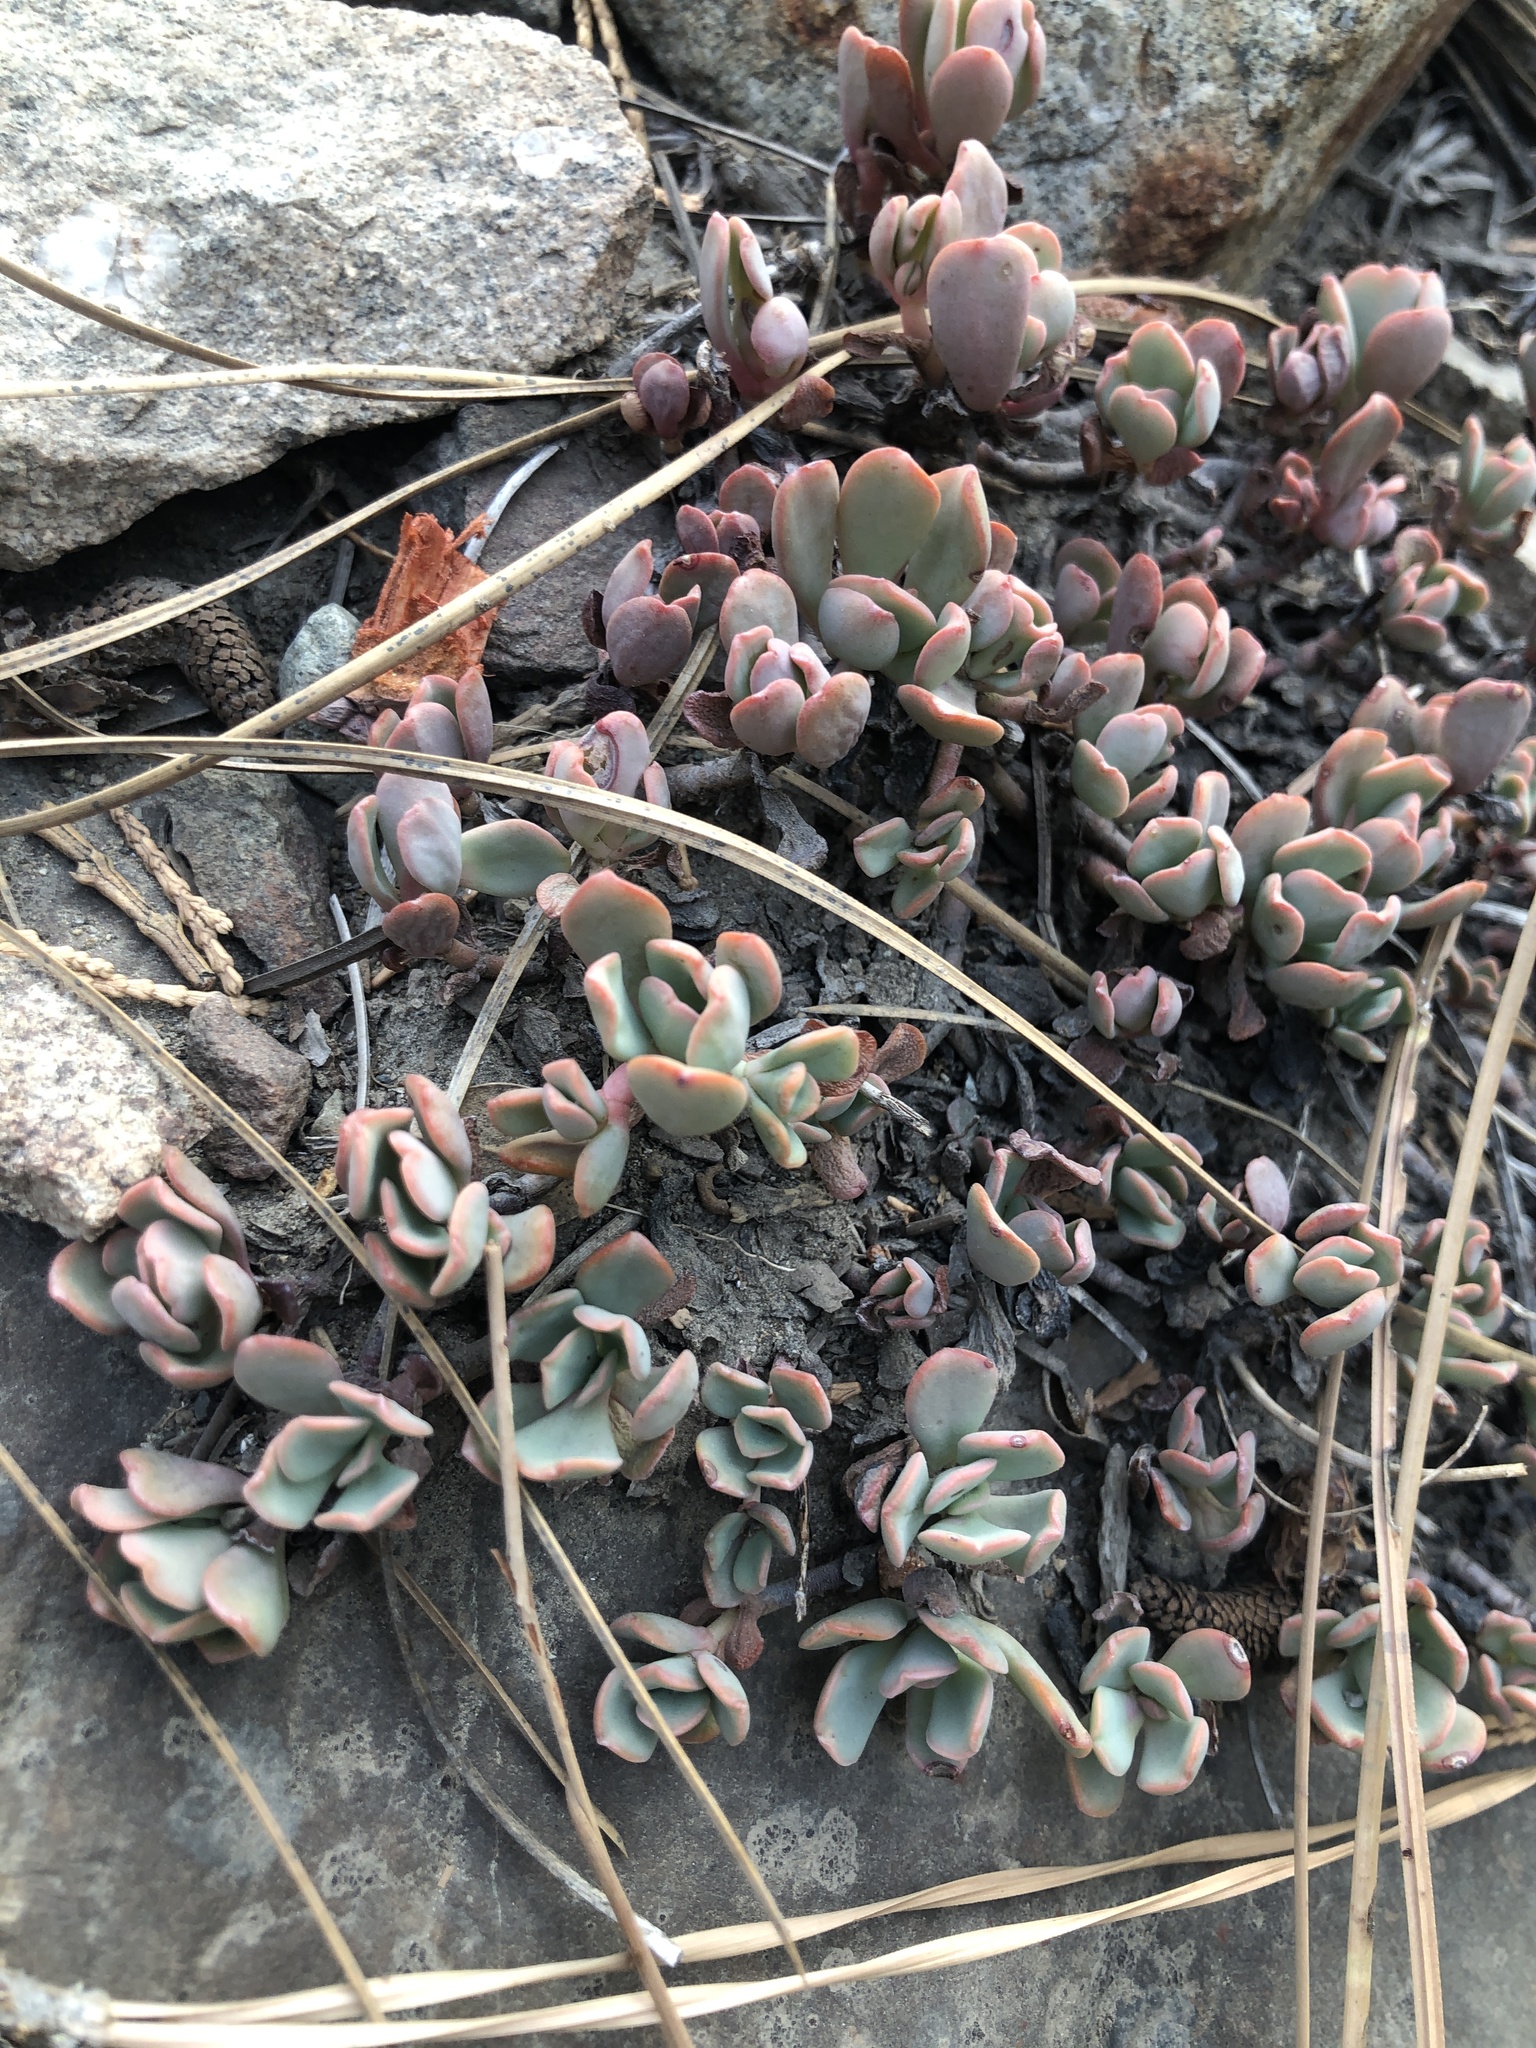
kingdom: Plantae
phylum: Tracheophyta
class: Magnoliopsida
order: Saxifragales
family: Crassulaceae
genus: Sedum
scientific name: Sedum obtusatum
